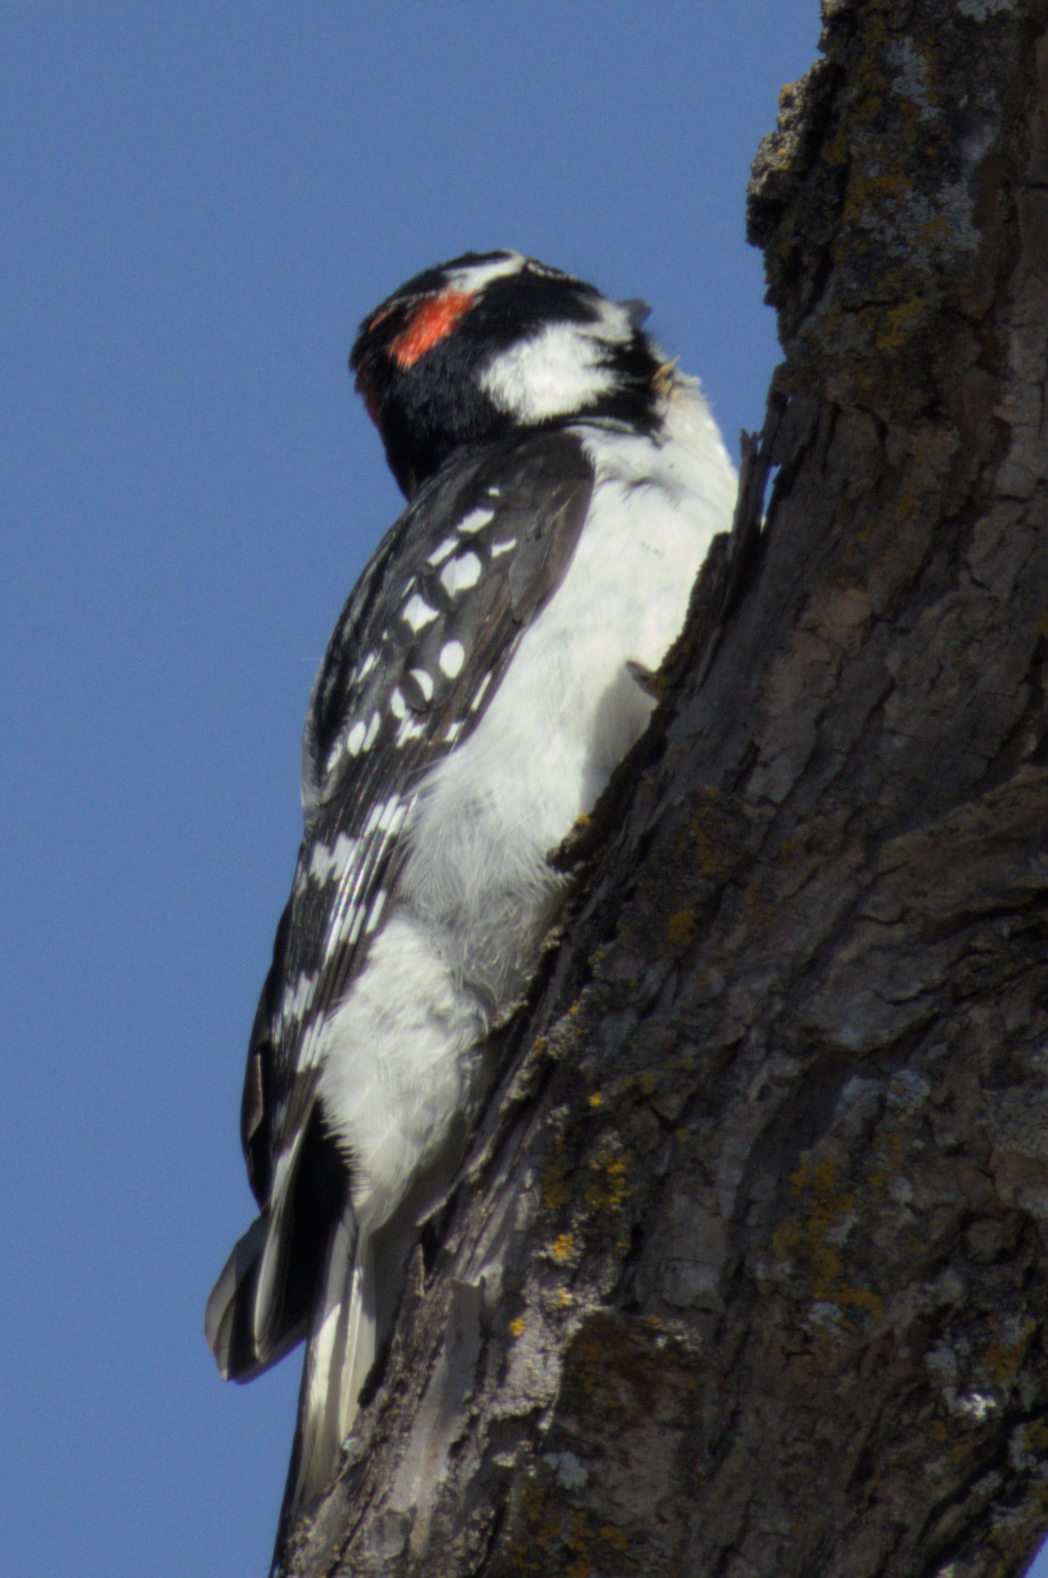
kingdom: Animalia
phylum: Chordata
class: Aves
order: Piciformes
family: Picidae
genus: Leuconotopicus
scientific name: Leuconotopicus villosus
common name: Hairy woodpecker
